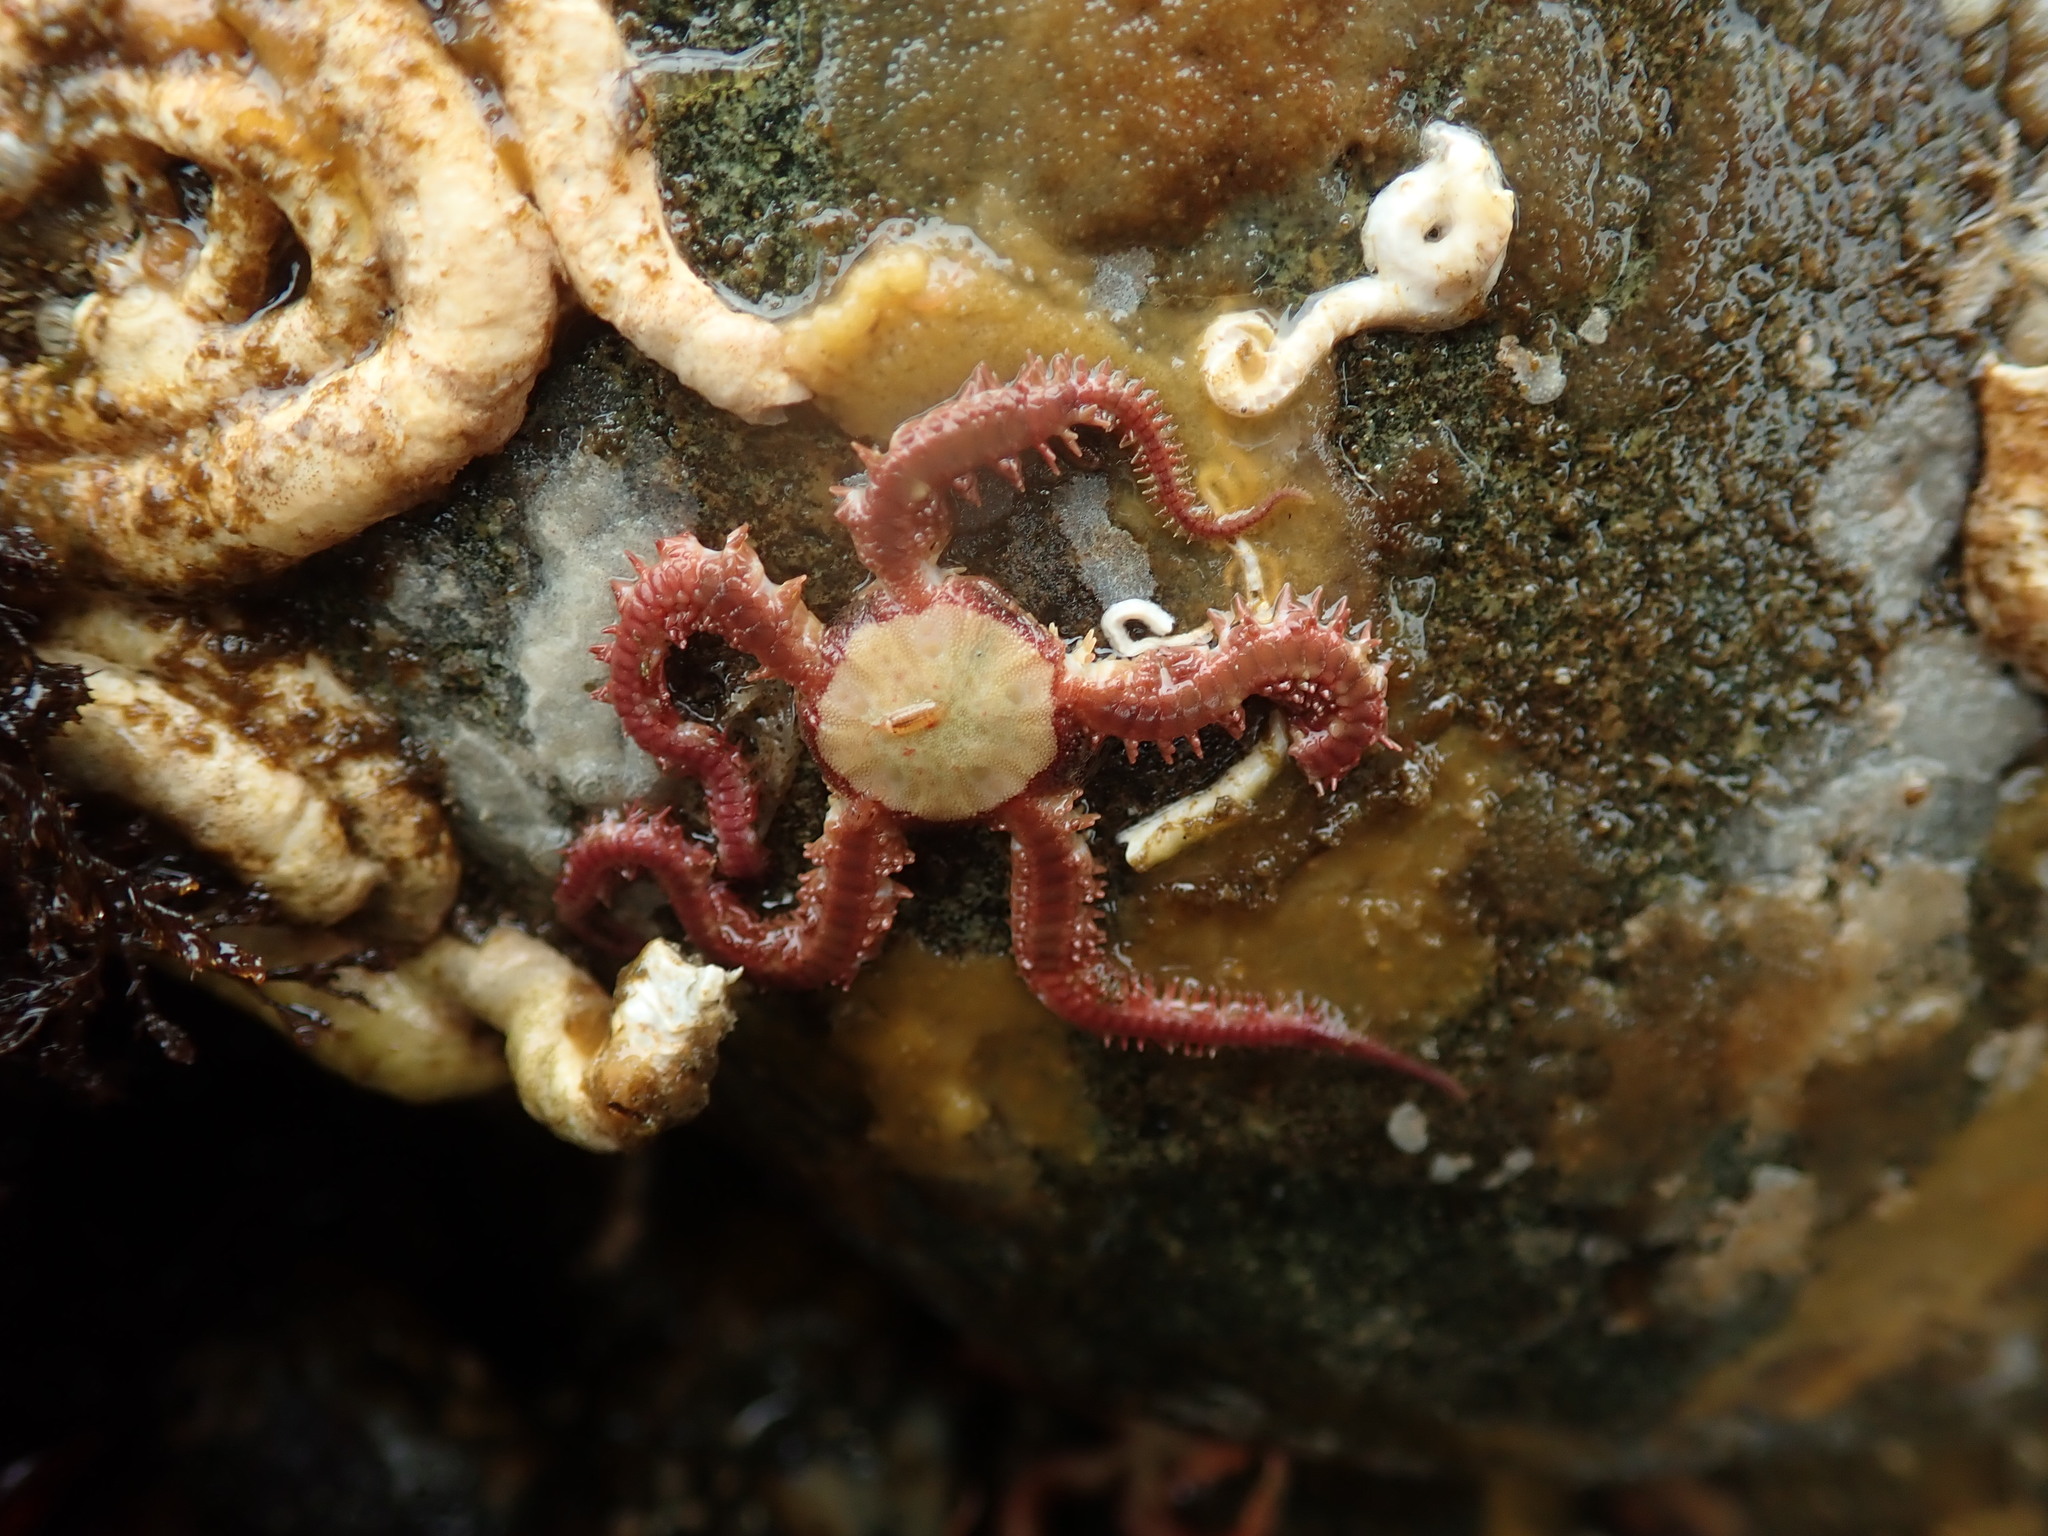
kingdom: Animalia
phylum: Echinodermata
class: Ophiuroidea
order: Amphilepidida
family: Ophiopholidae
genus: Ophiopholis
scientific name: Ophiopholis aculeata
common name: Crevice brittlestar
